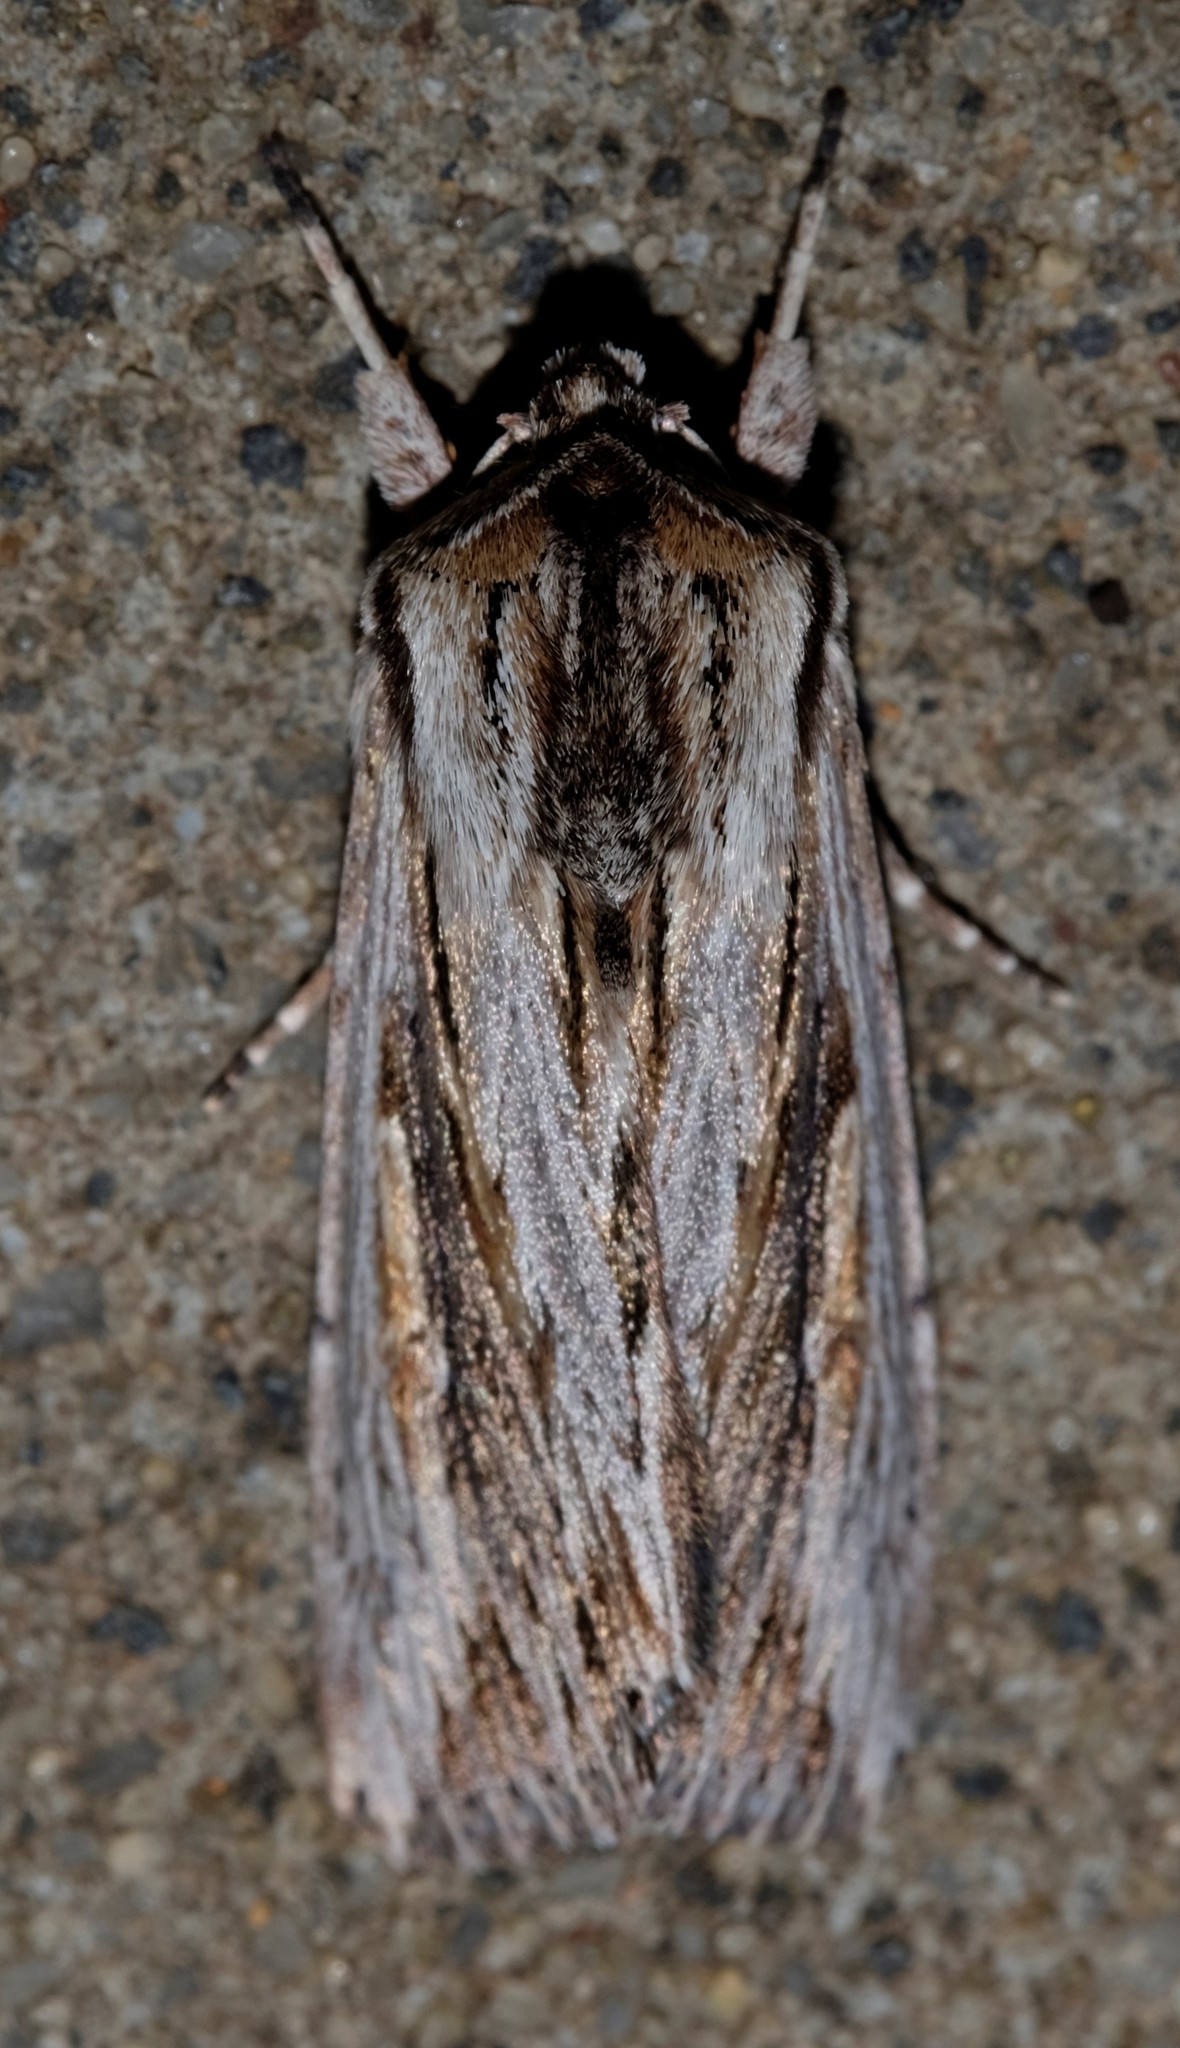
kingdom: Animalia
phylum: Arthropoda
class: Insecta
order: Lepidoptera
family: Noctuidae
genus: Persectania
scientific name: Persectania ewingii
